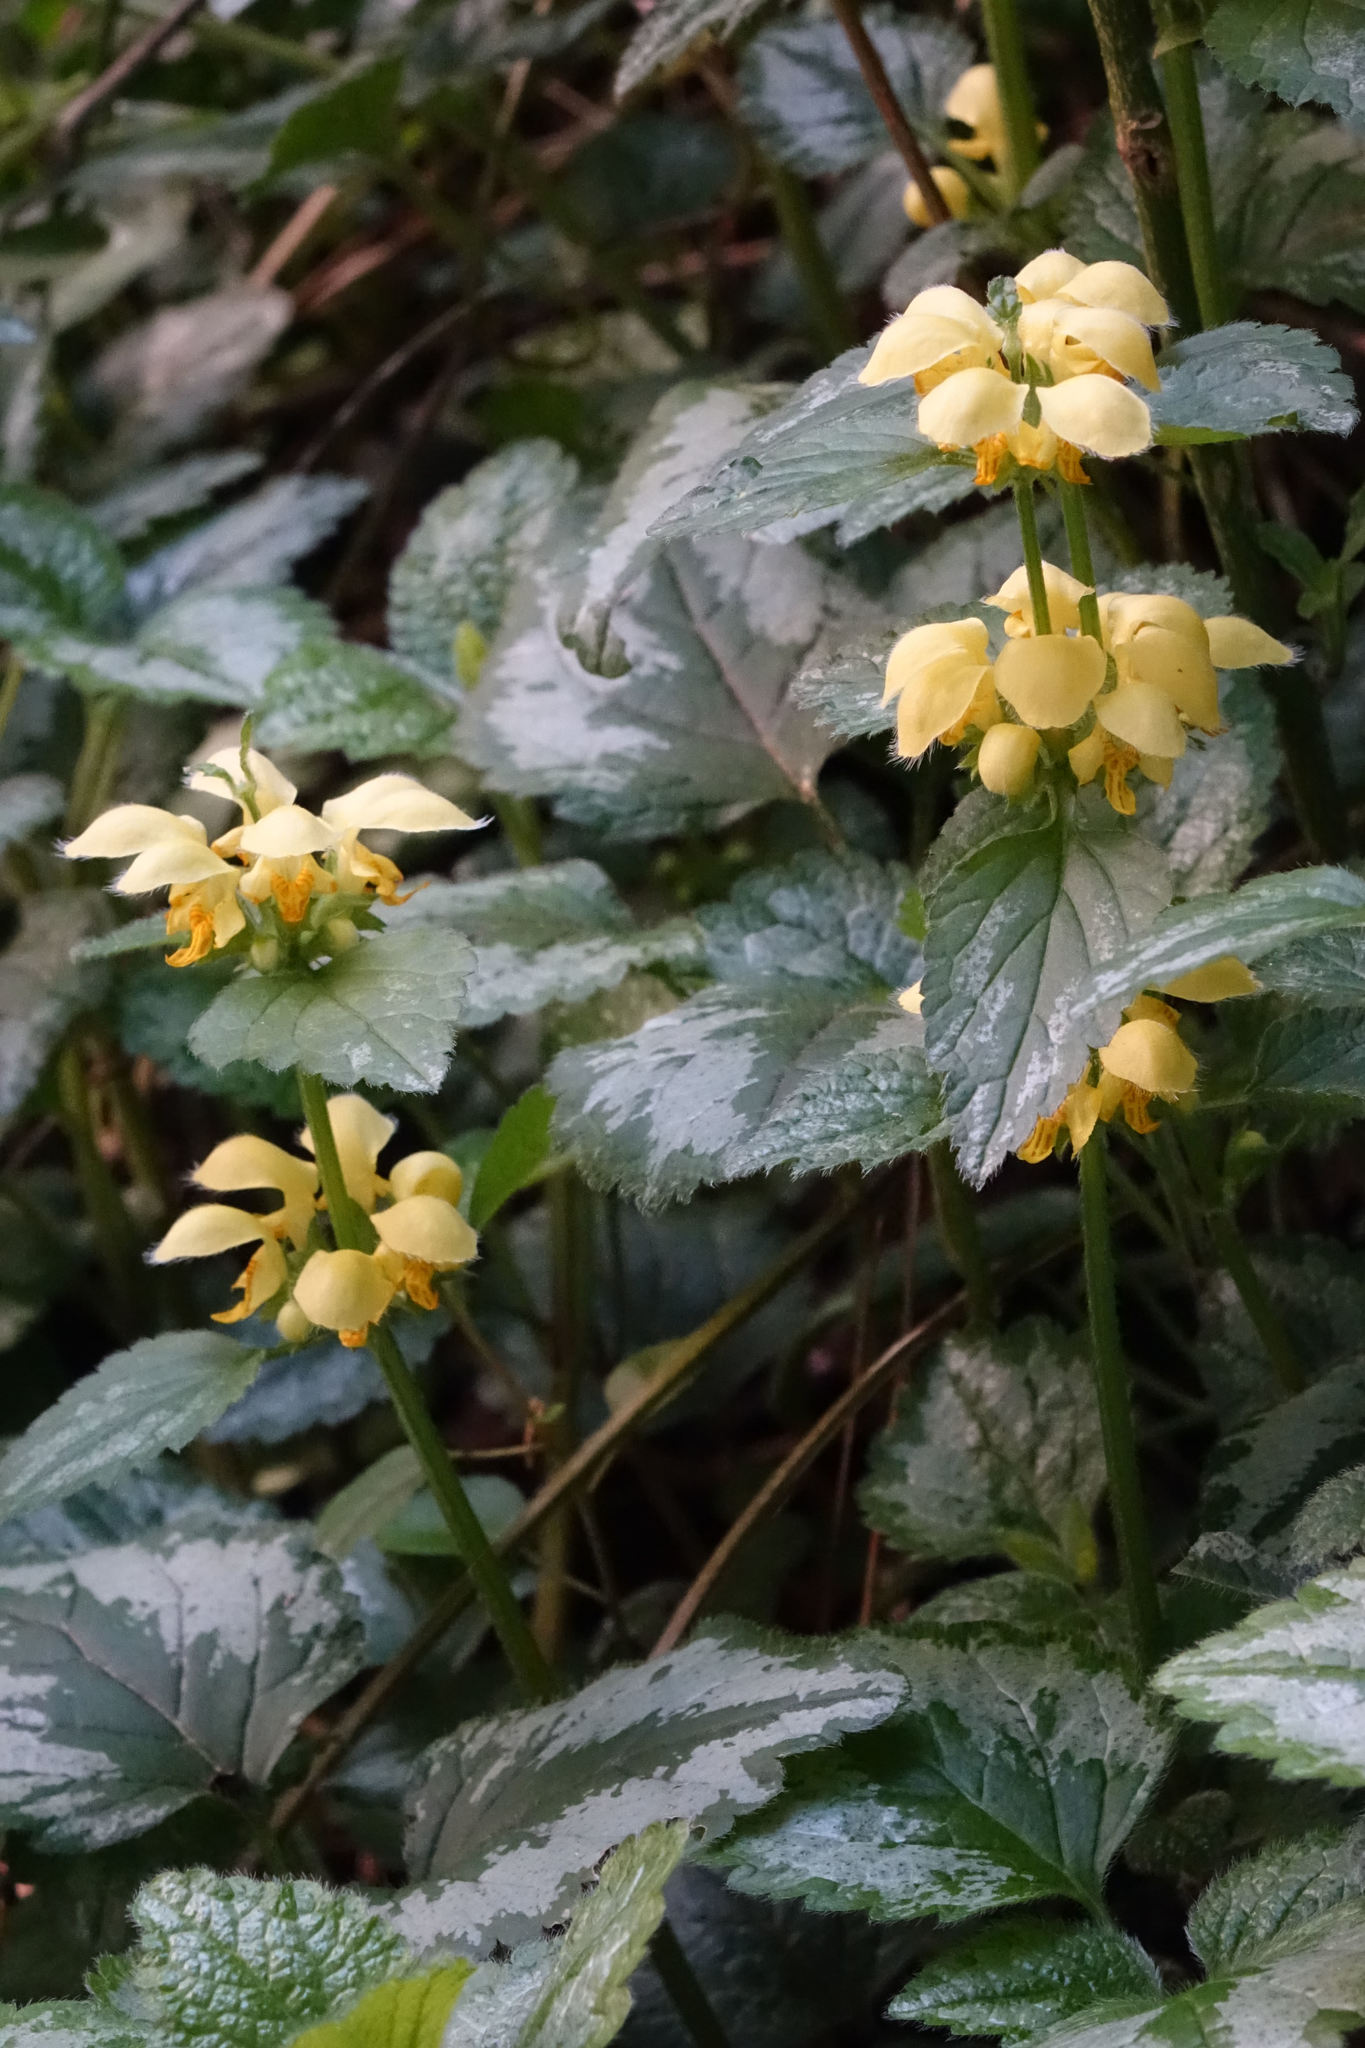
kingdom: Plantae
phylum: Tracheophyta
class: Magnoliopsida
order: Lamiales
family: Lamiaceae
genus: Lamium
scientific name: Lamium galeobdolon
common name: Yellow archangel
